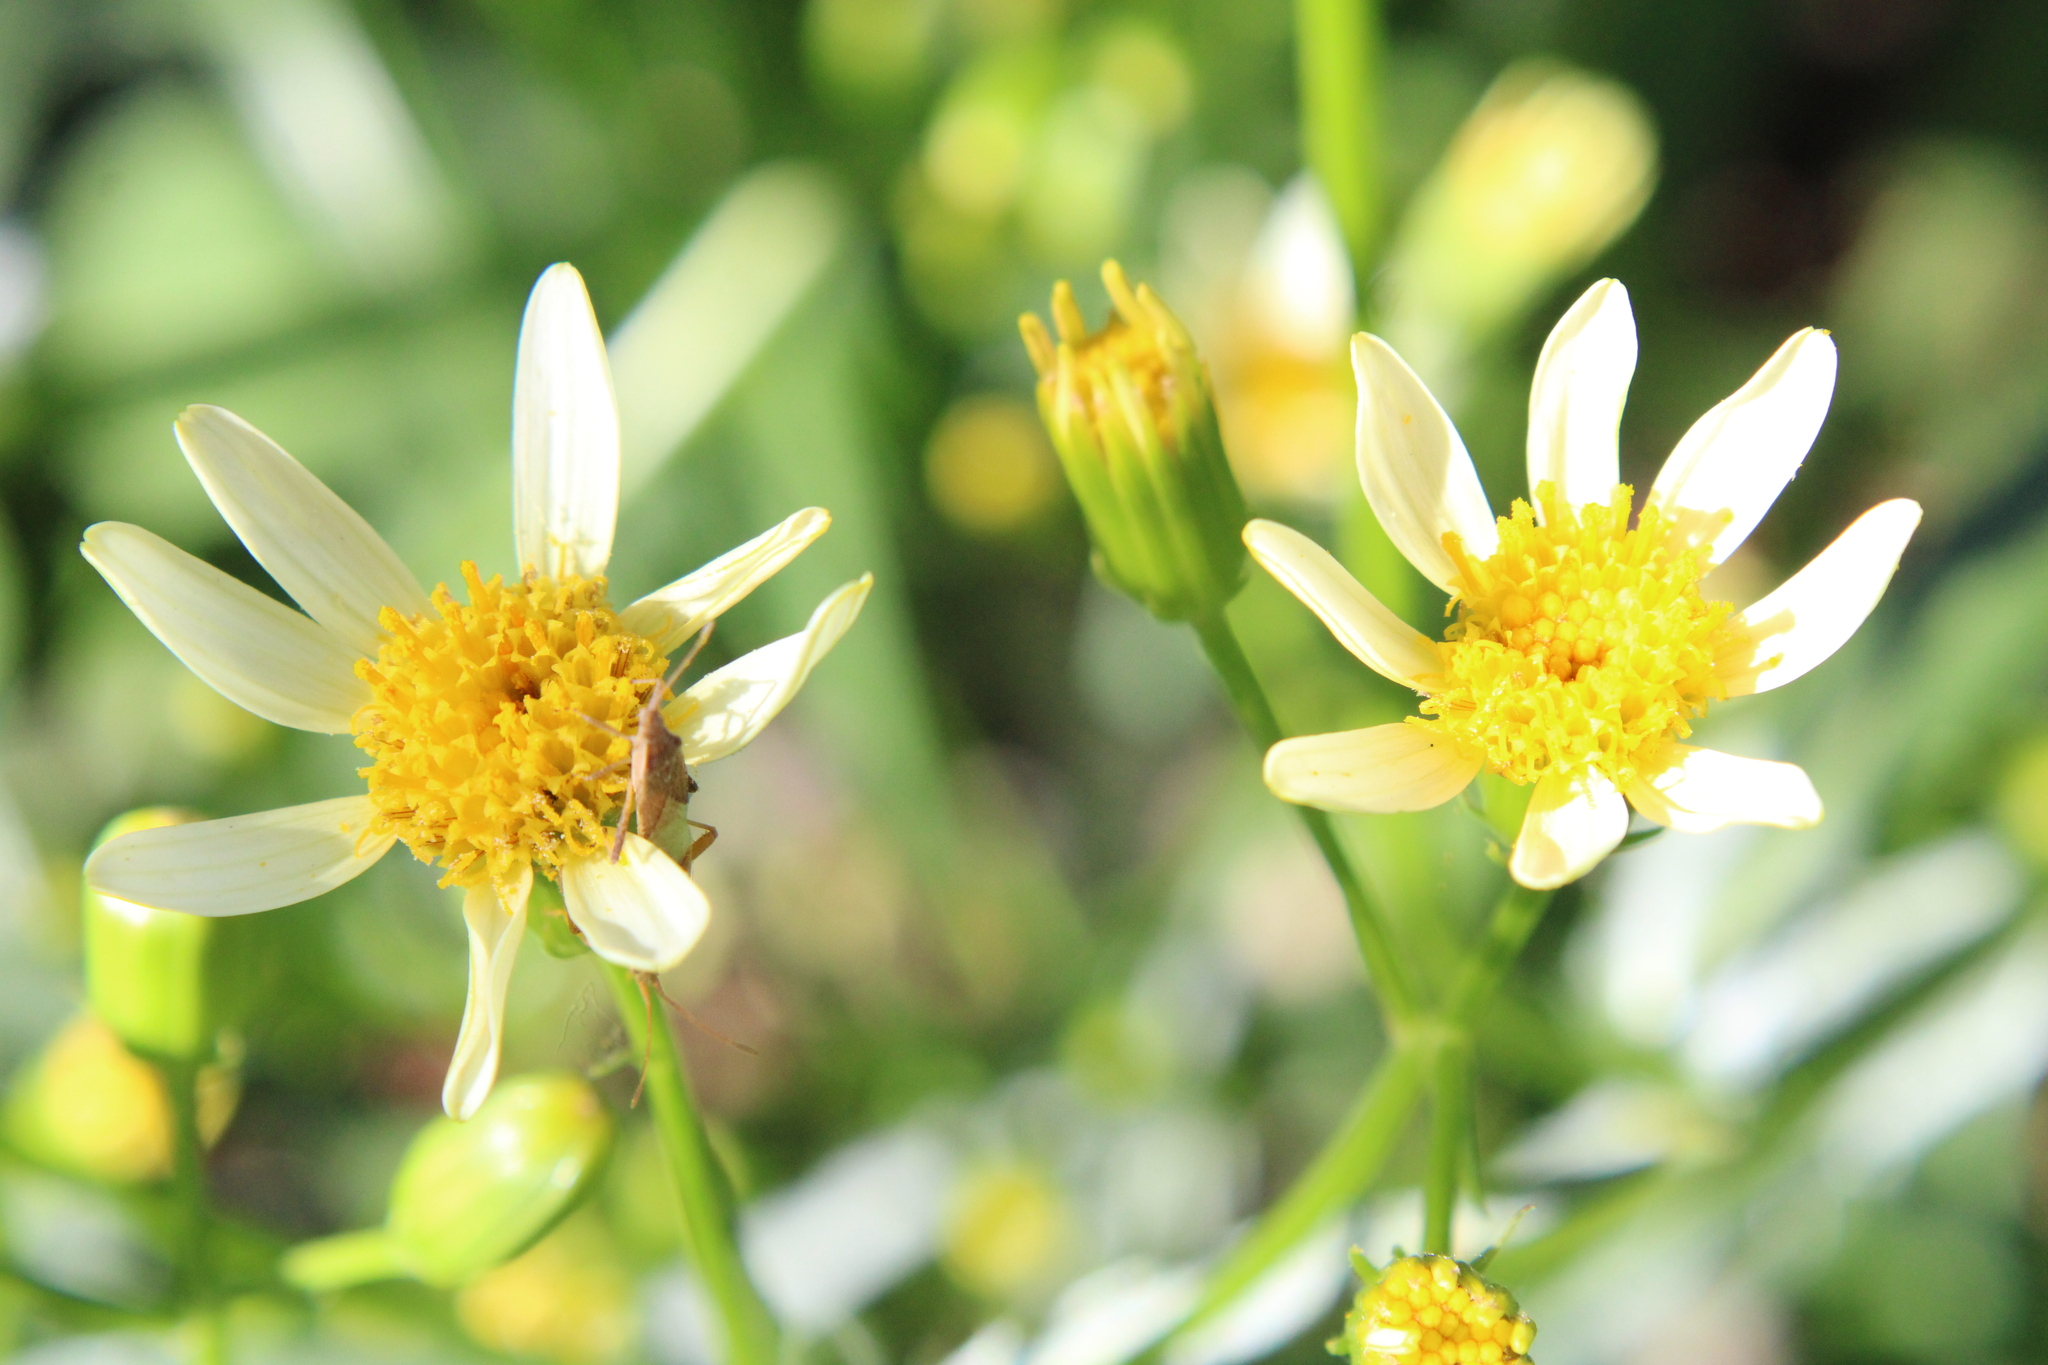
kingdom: Plantae
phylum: Tracheophyta
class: Magnoliopsida
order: Asterales
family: Asteraceae
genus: Senecio
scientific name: Senecio tweediei
